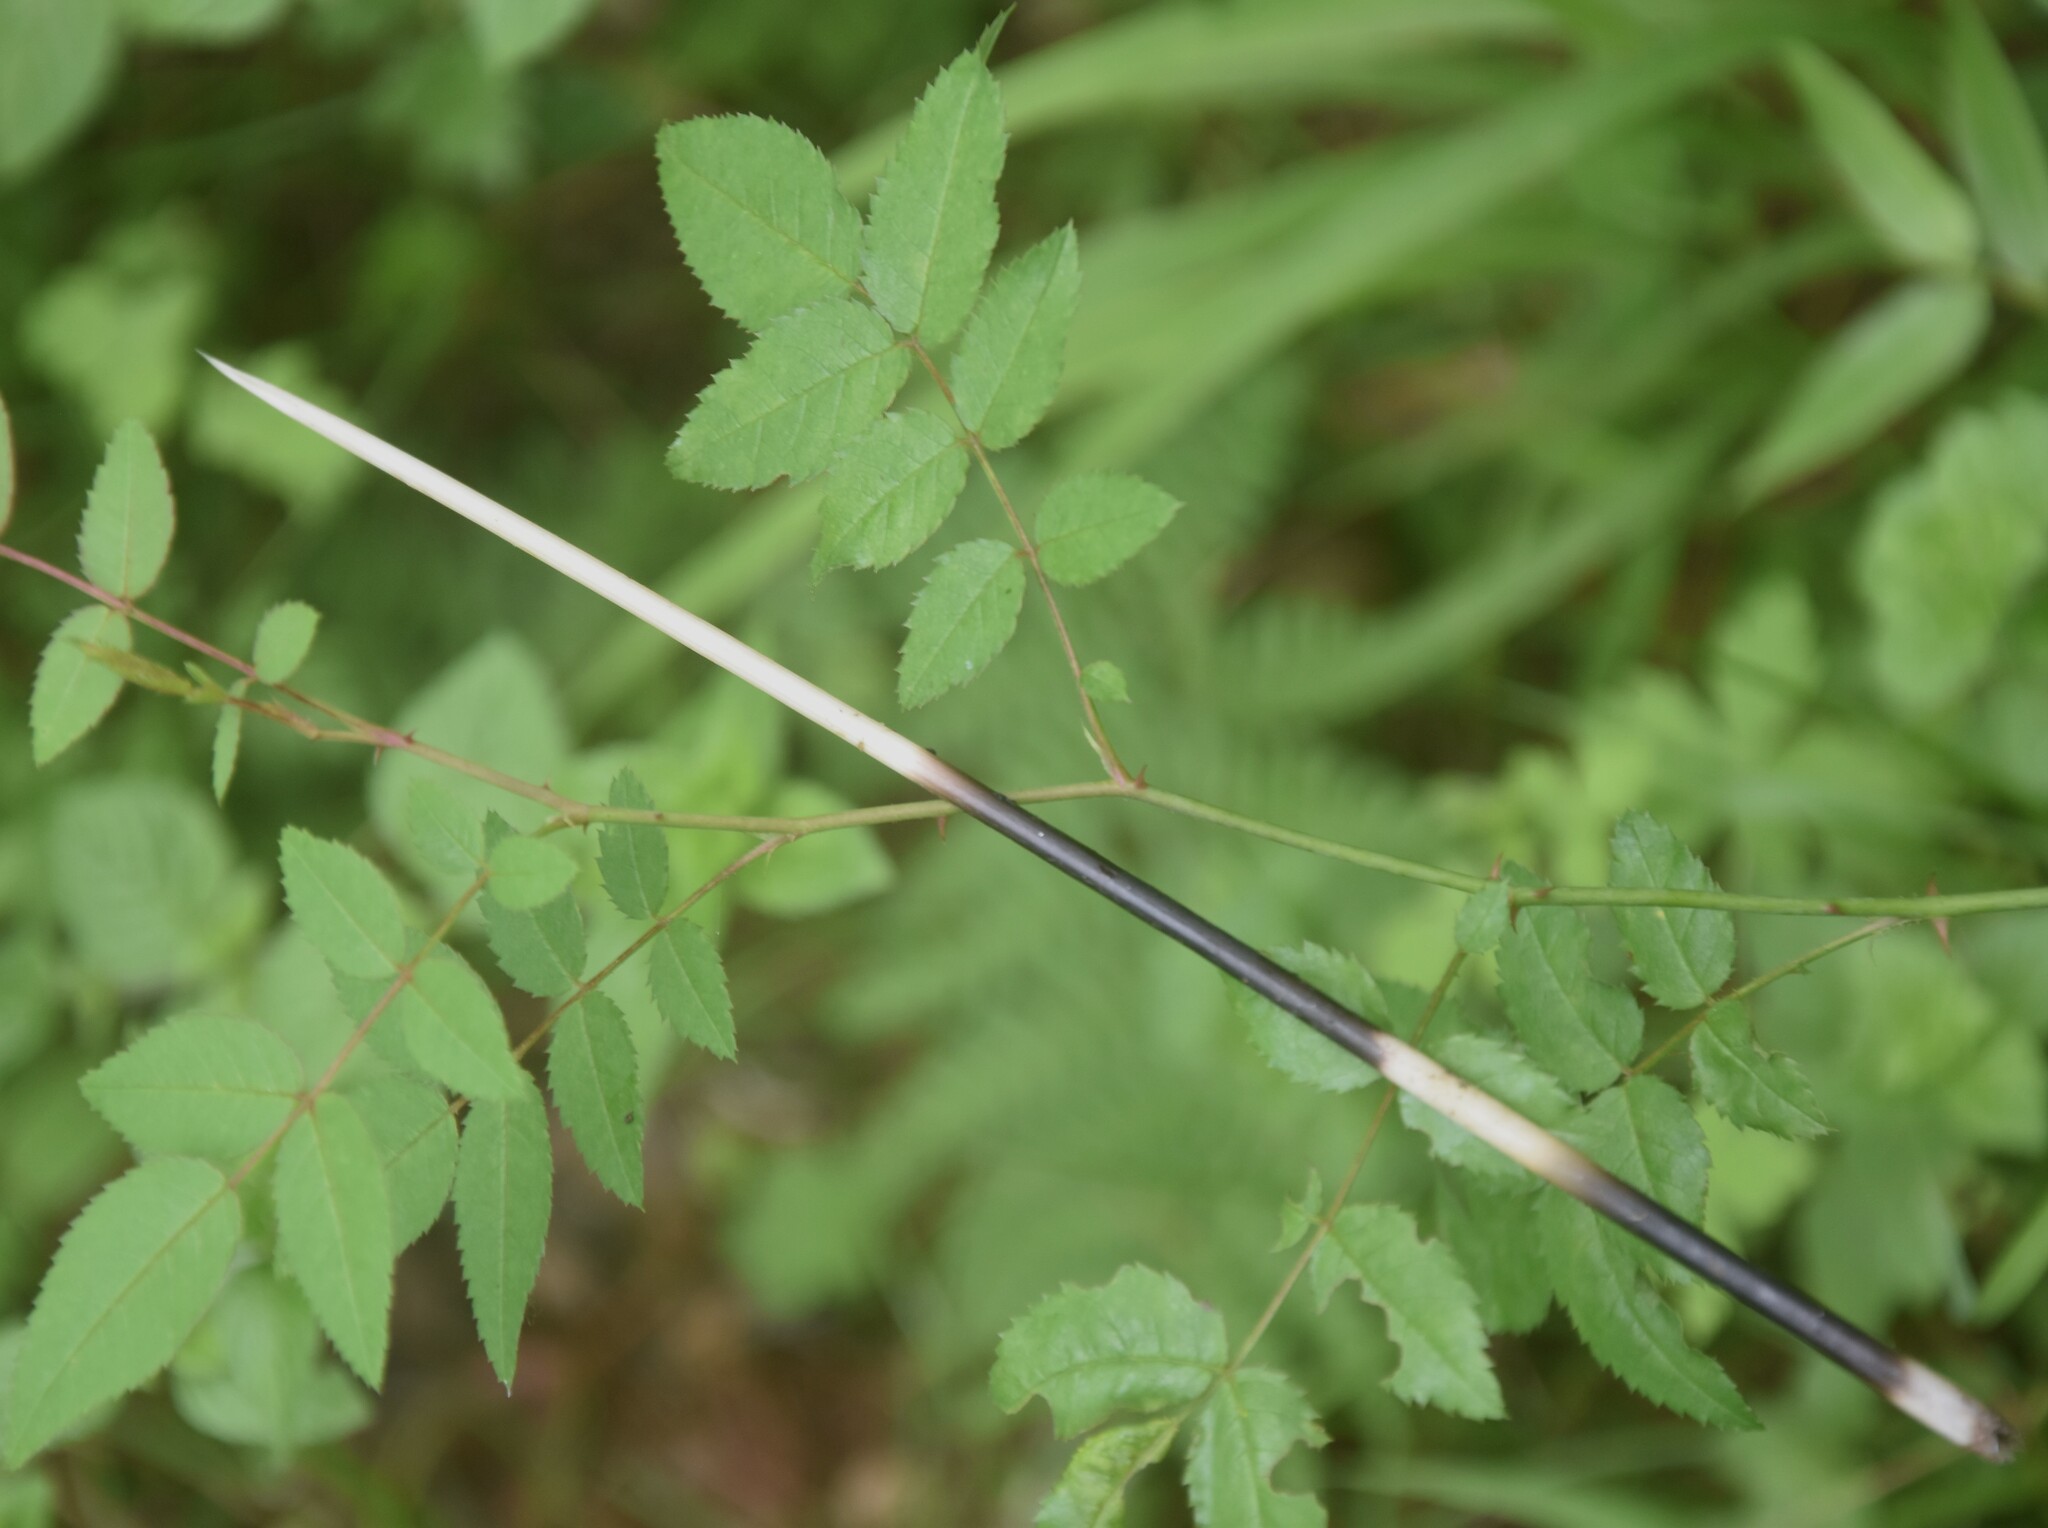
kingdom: Animalia
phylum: Chordata
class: Mammalia
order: Rodentia
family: Hystricidae
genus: Hystrix
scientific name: Hystrix indica
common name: Indian crested porcupine
